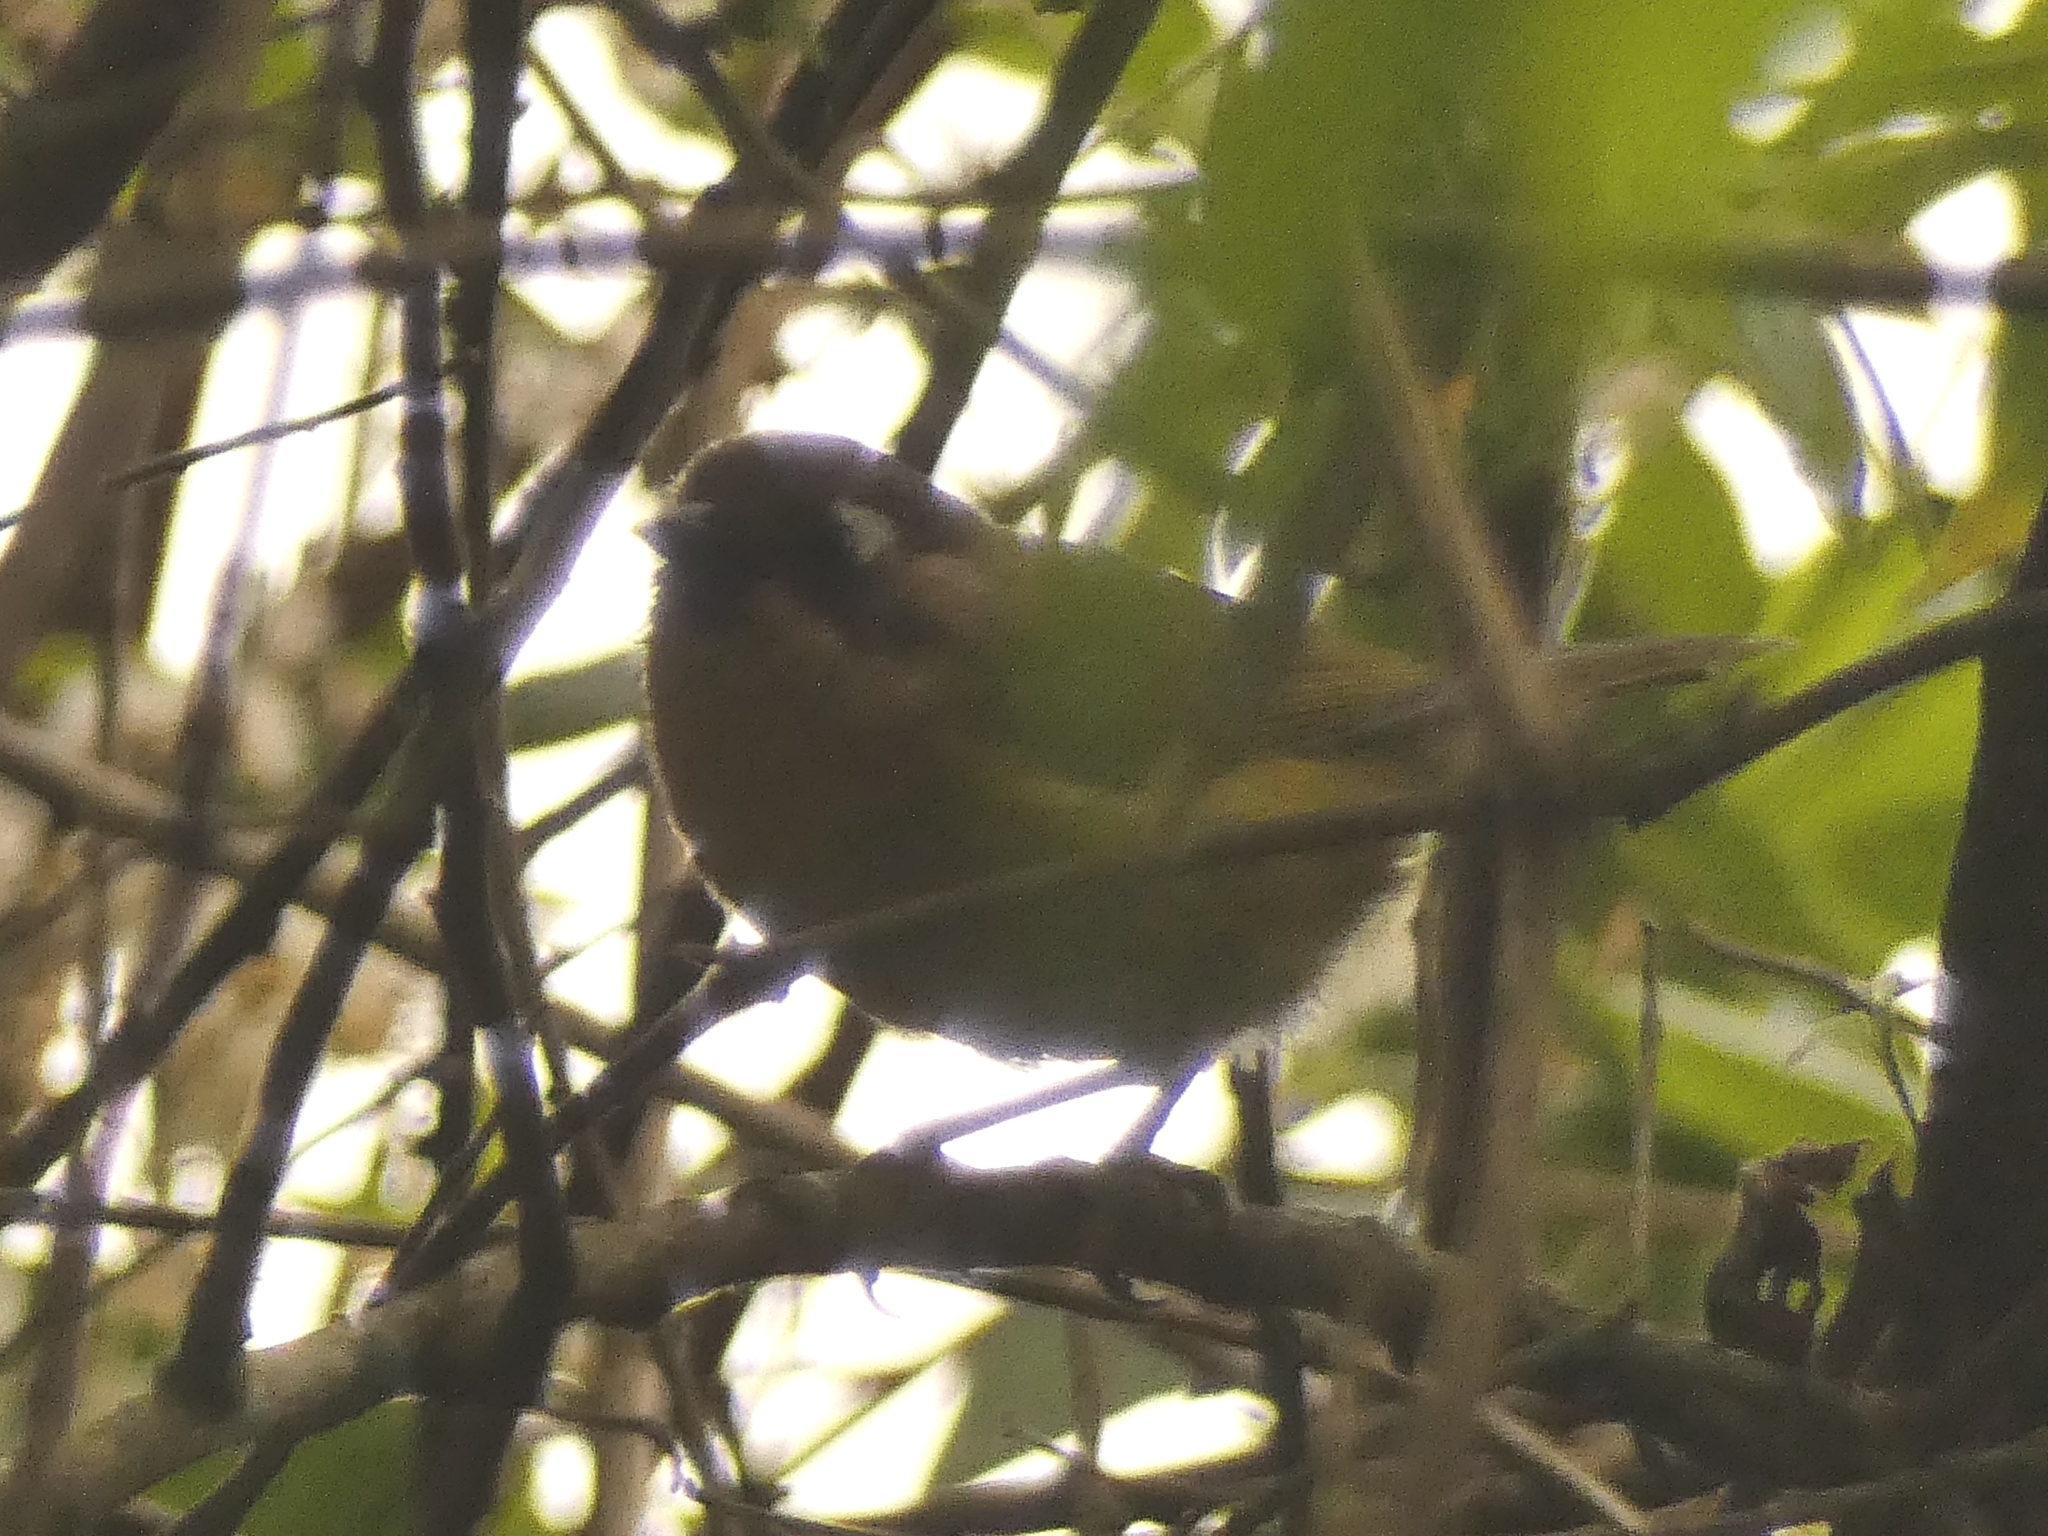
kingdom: Animalia
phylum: Chordata
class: Aves
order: Passeriformes
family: Passerellidae
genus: Chlorospingus
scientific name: Chlorospingus flavopectus
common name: Common chlorospingus
